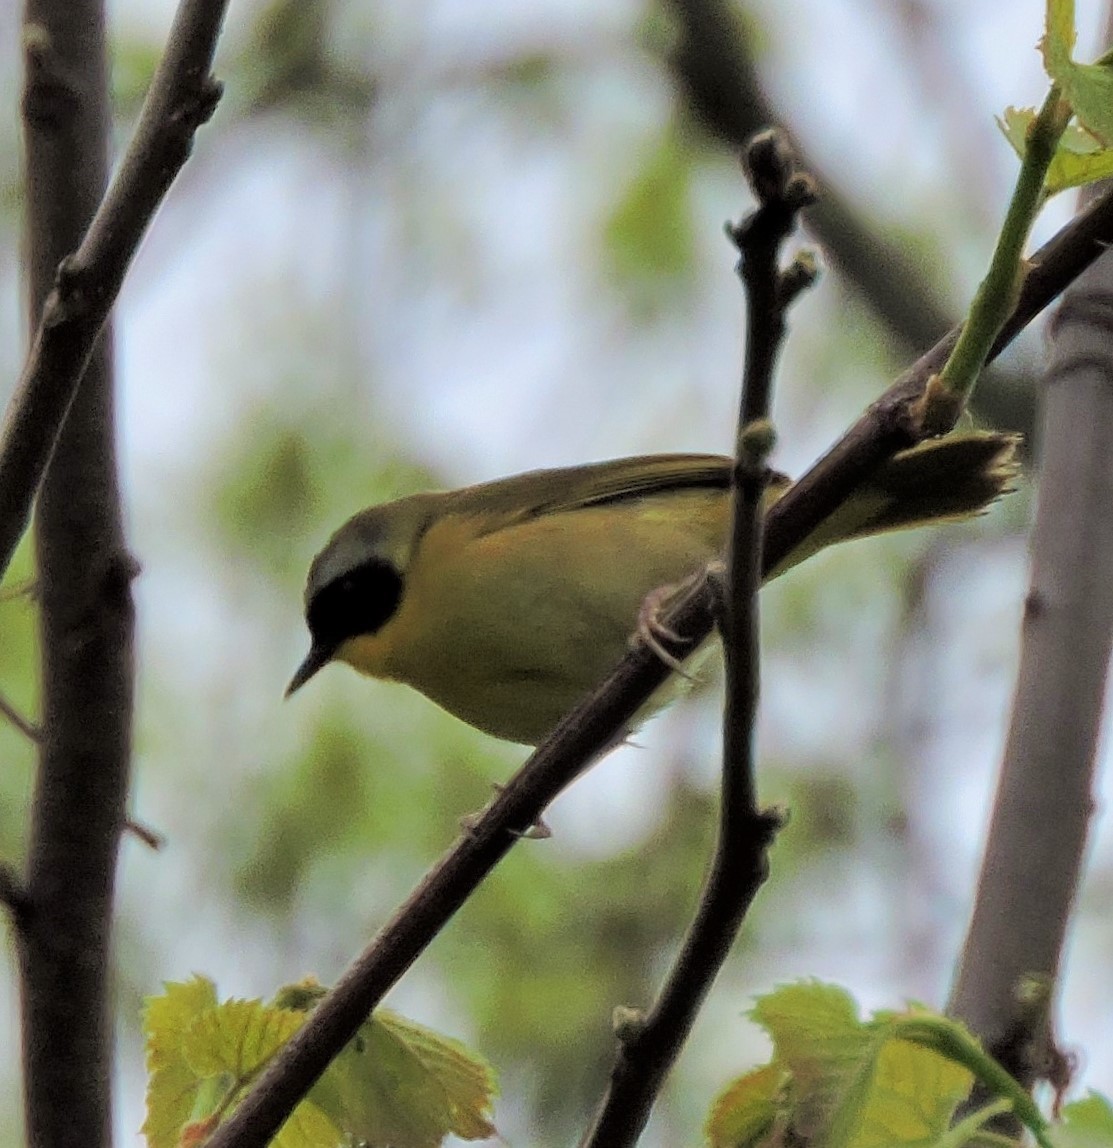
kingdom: Animalia
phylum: Chordata
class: Aves
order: Passeriformes
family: Parulidae
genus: Geothlypis
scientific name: Geothlypis trichas
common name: Common yellowthroat
